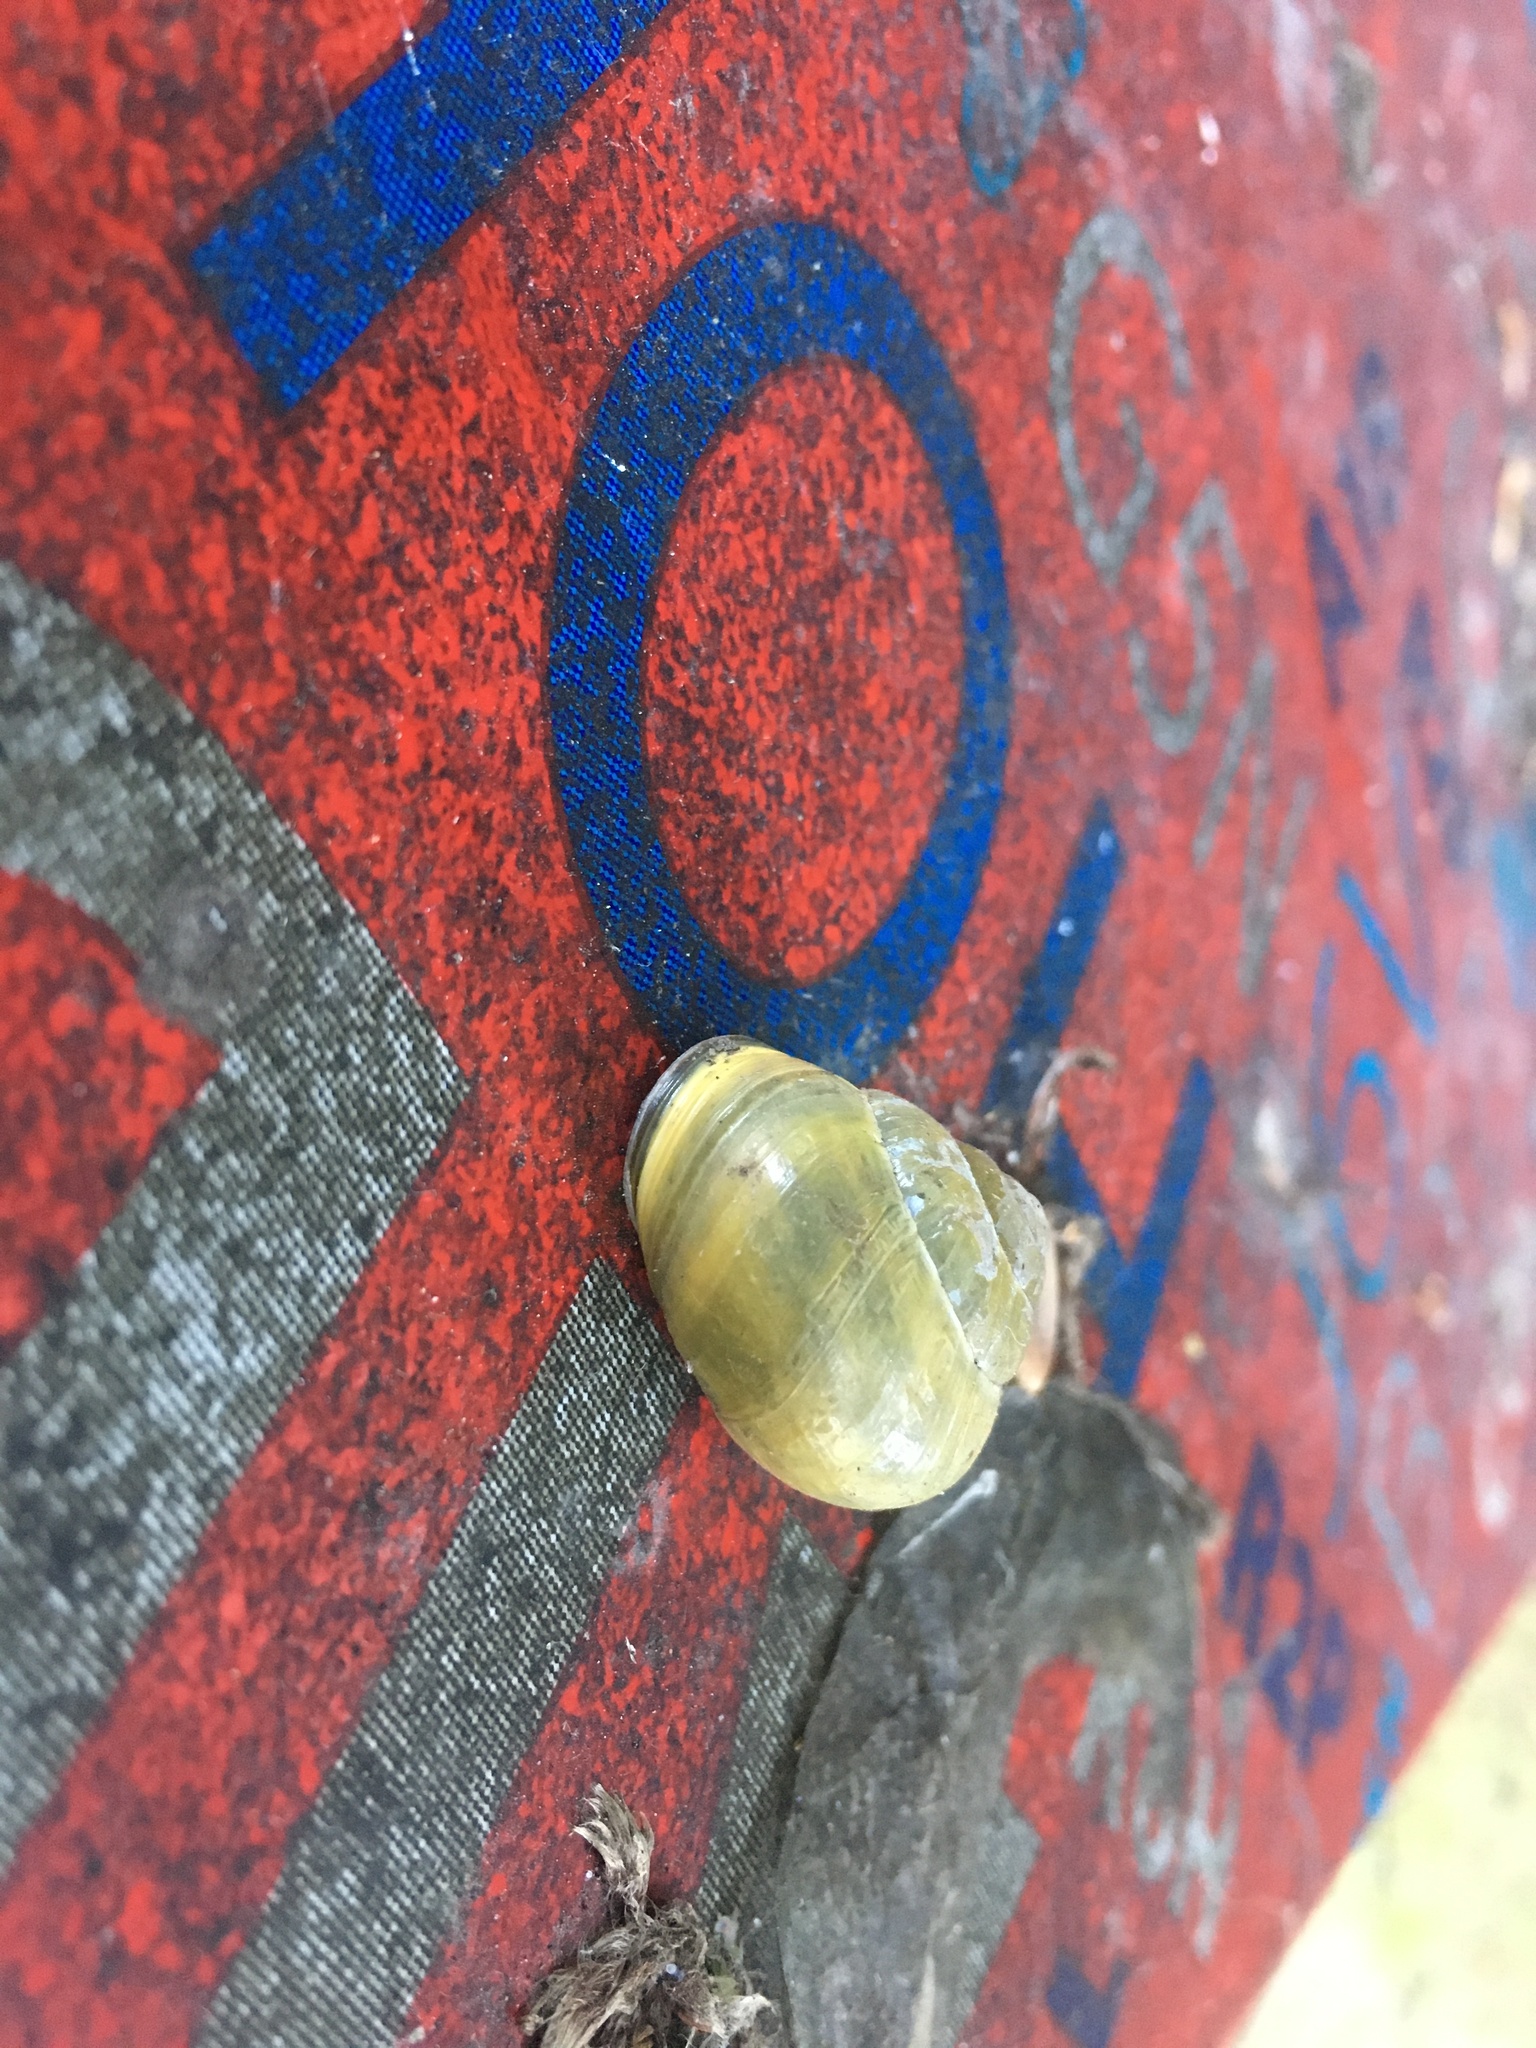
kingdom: Animalia
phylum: Mollusca
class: Gastropoda
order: Stylommatophora
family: Helicidae
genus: Cepaea
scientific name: Cepaea nemoralis
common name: Grovesnail
